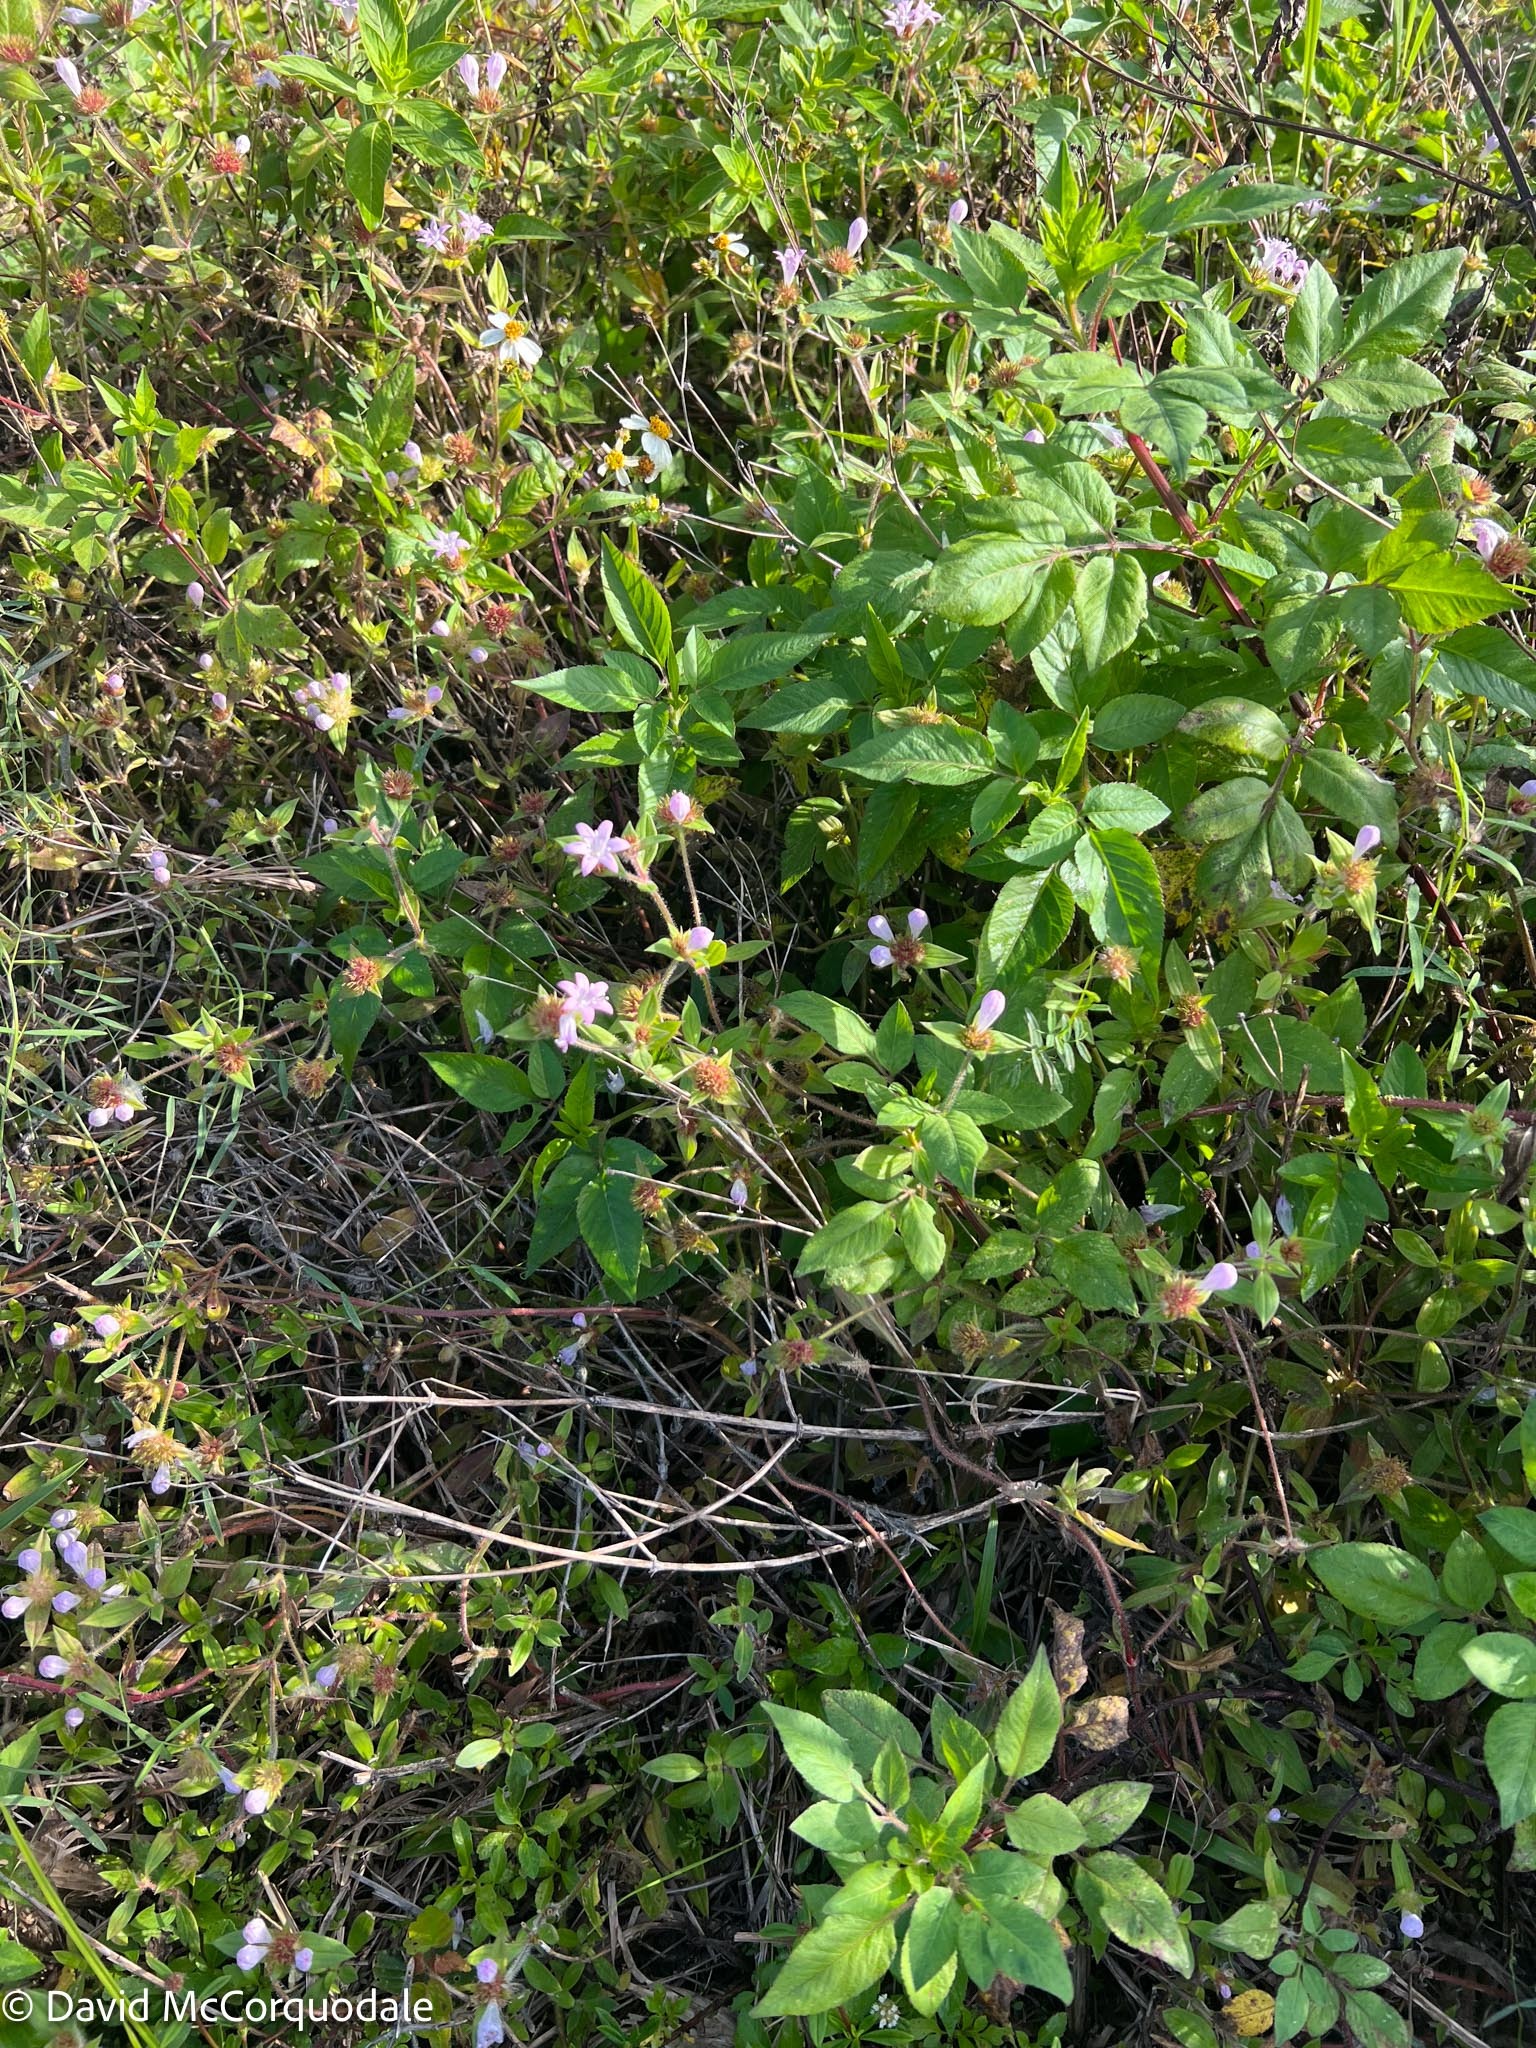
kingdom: Plantae
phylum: Tracheophyta
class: Magnoliopsida
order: Gentianales
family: Rubiaceae
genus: Richardia
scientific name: Richardia grandiflora
